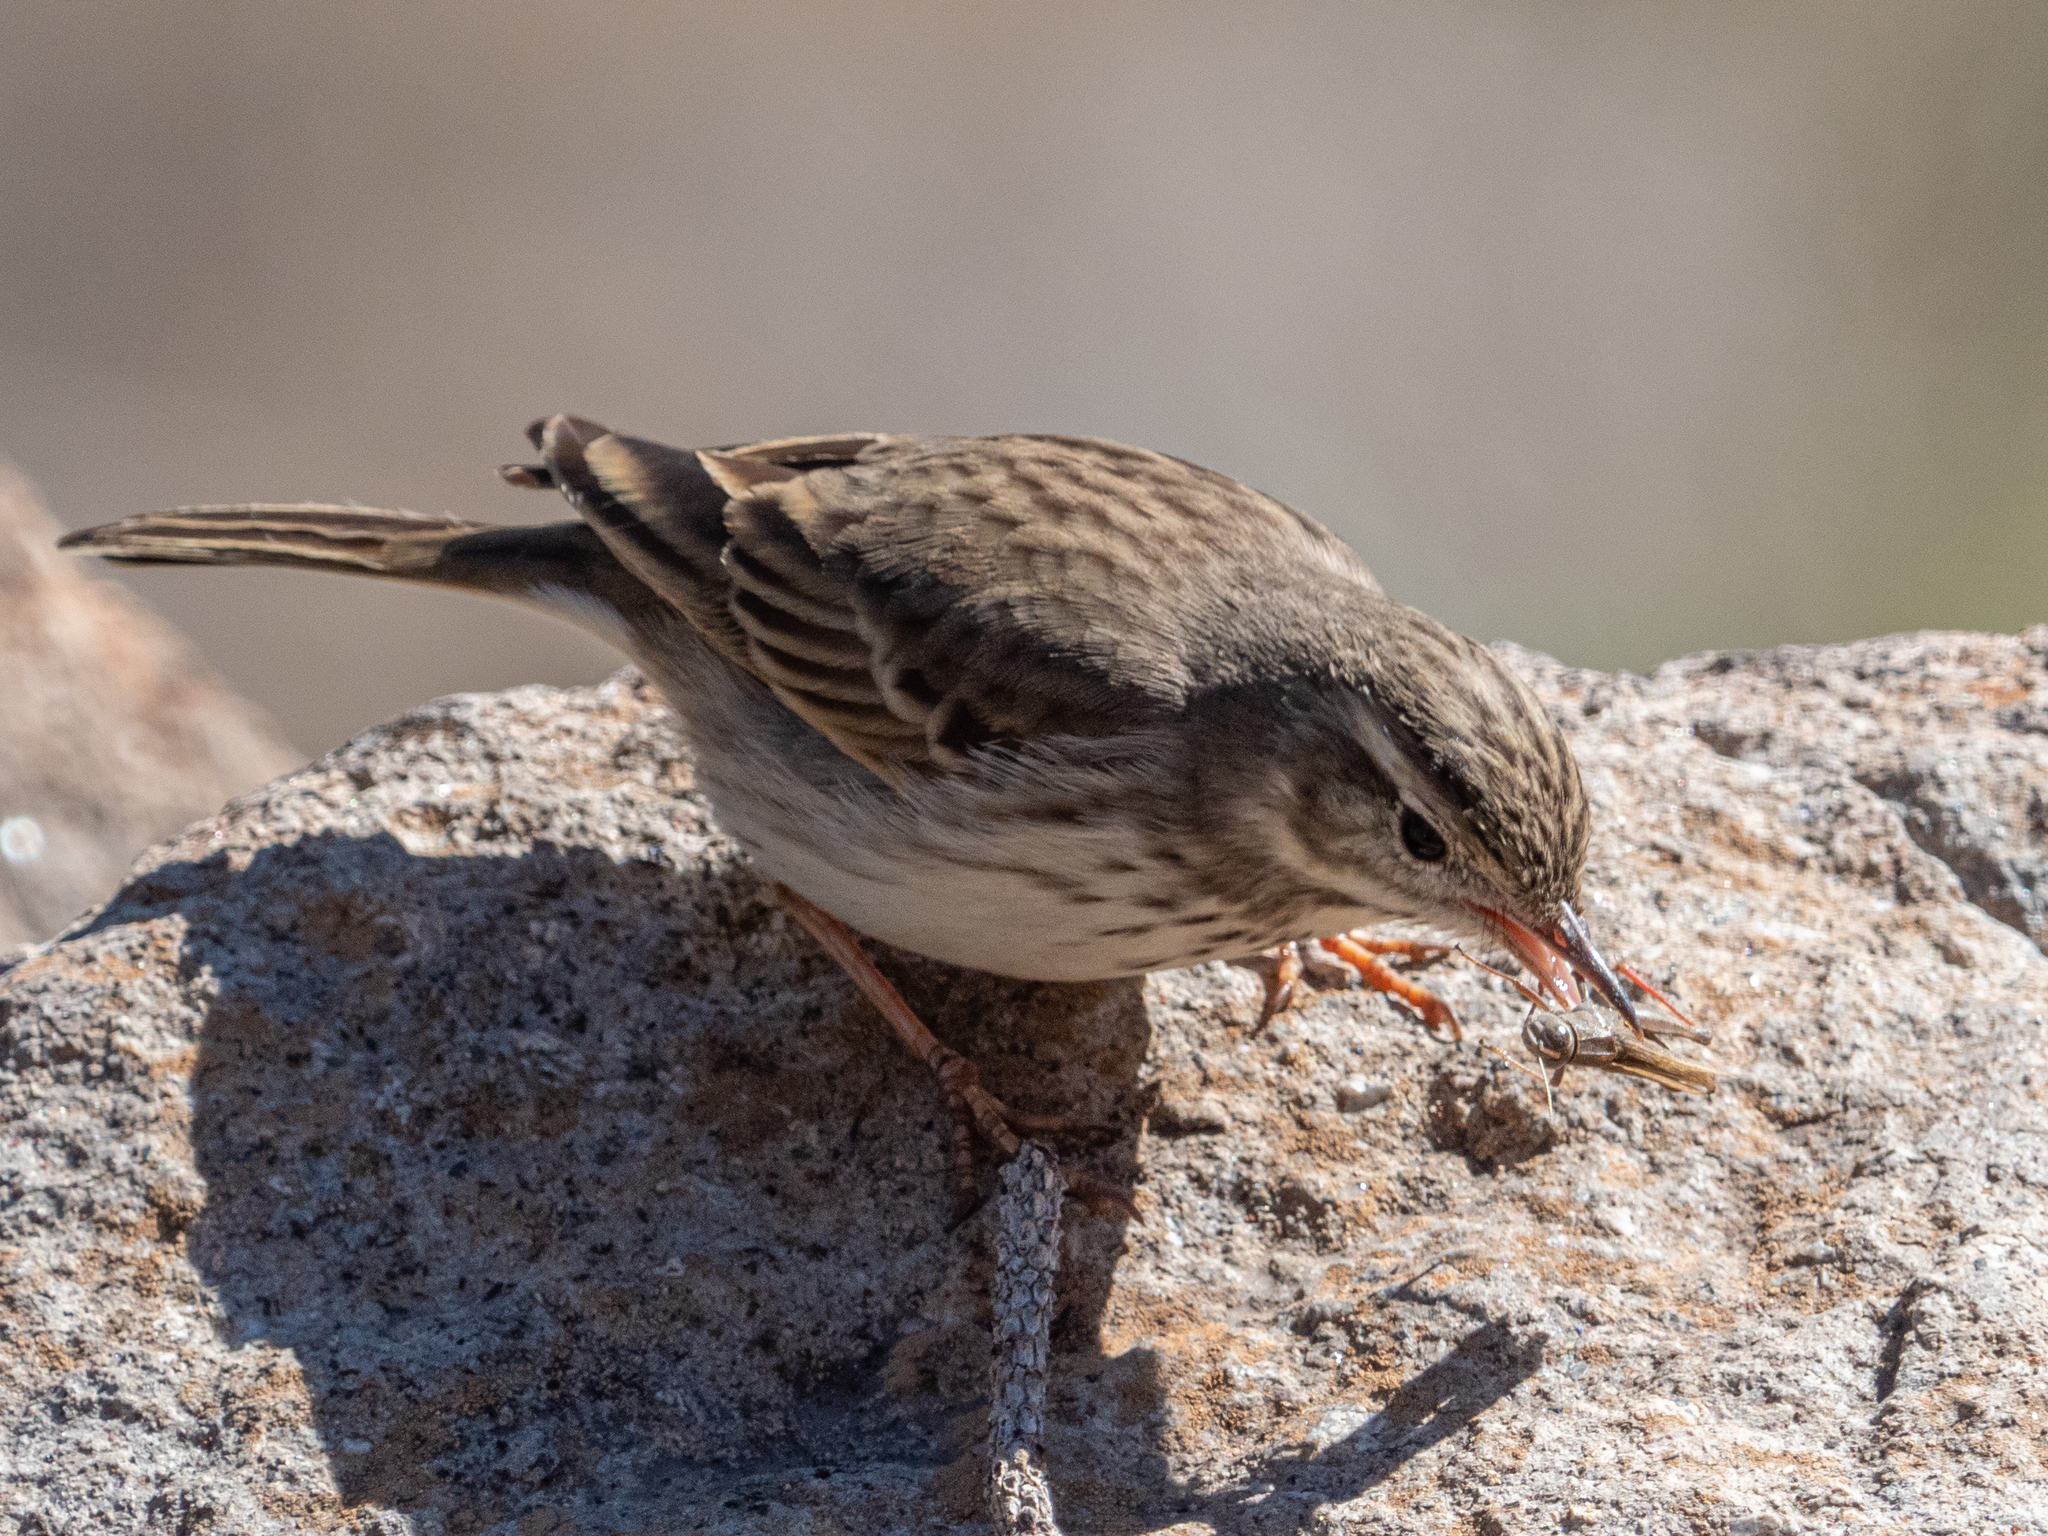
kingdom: Animalia
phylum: Chordata
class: Aves
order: Passeriformes
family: Motacillidae
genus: Anthus
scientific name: Anthus berthelotii
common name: Berthelot's pipit
